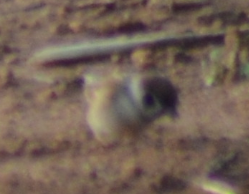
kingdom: Animalia
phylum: Chordata
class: Aves
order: Passeriformes
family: Passeridae
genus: Passer
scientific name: Passer montanus
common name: Eurasian tree sparrow
